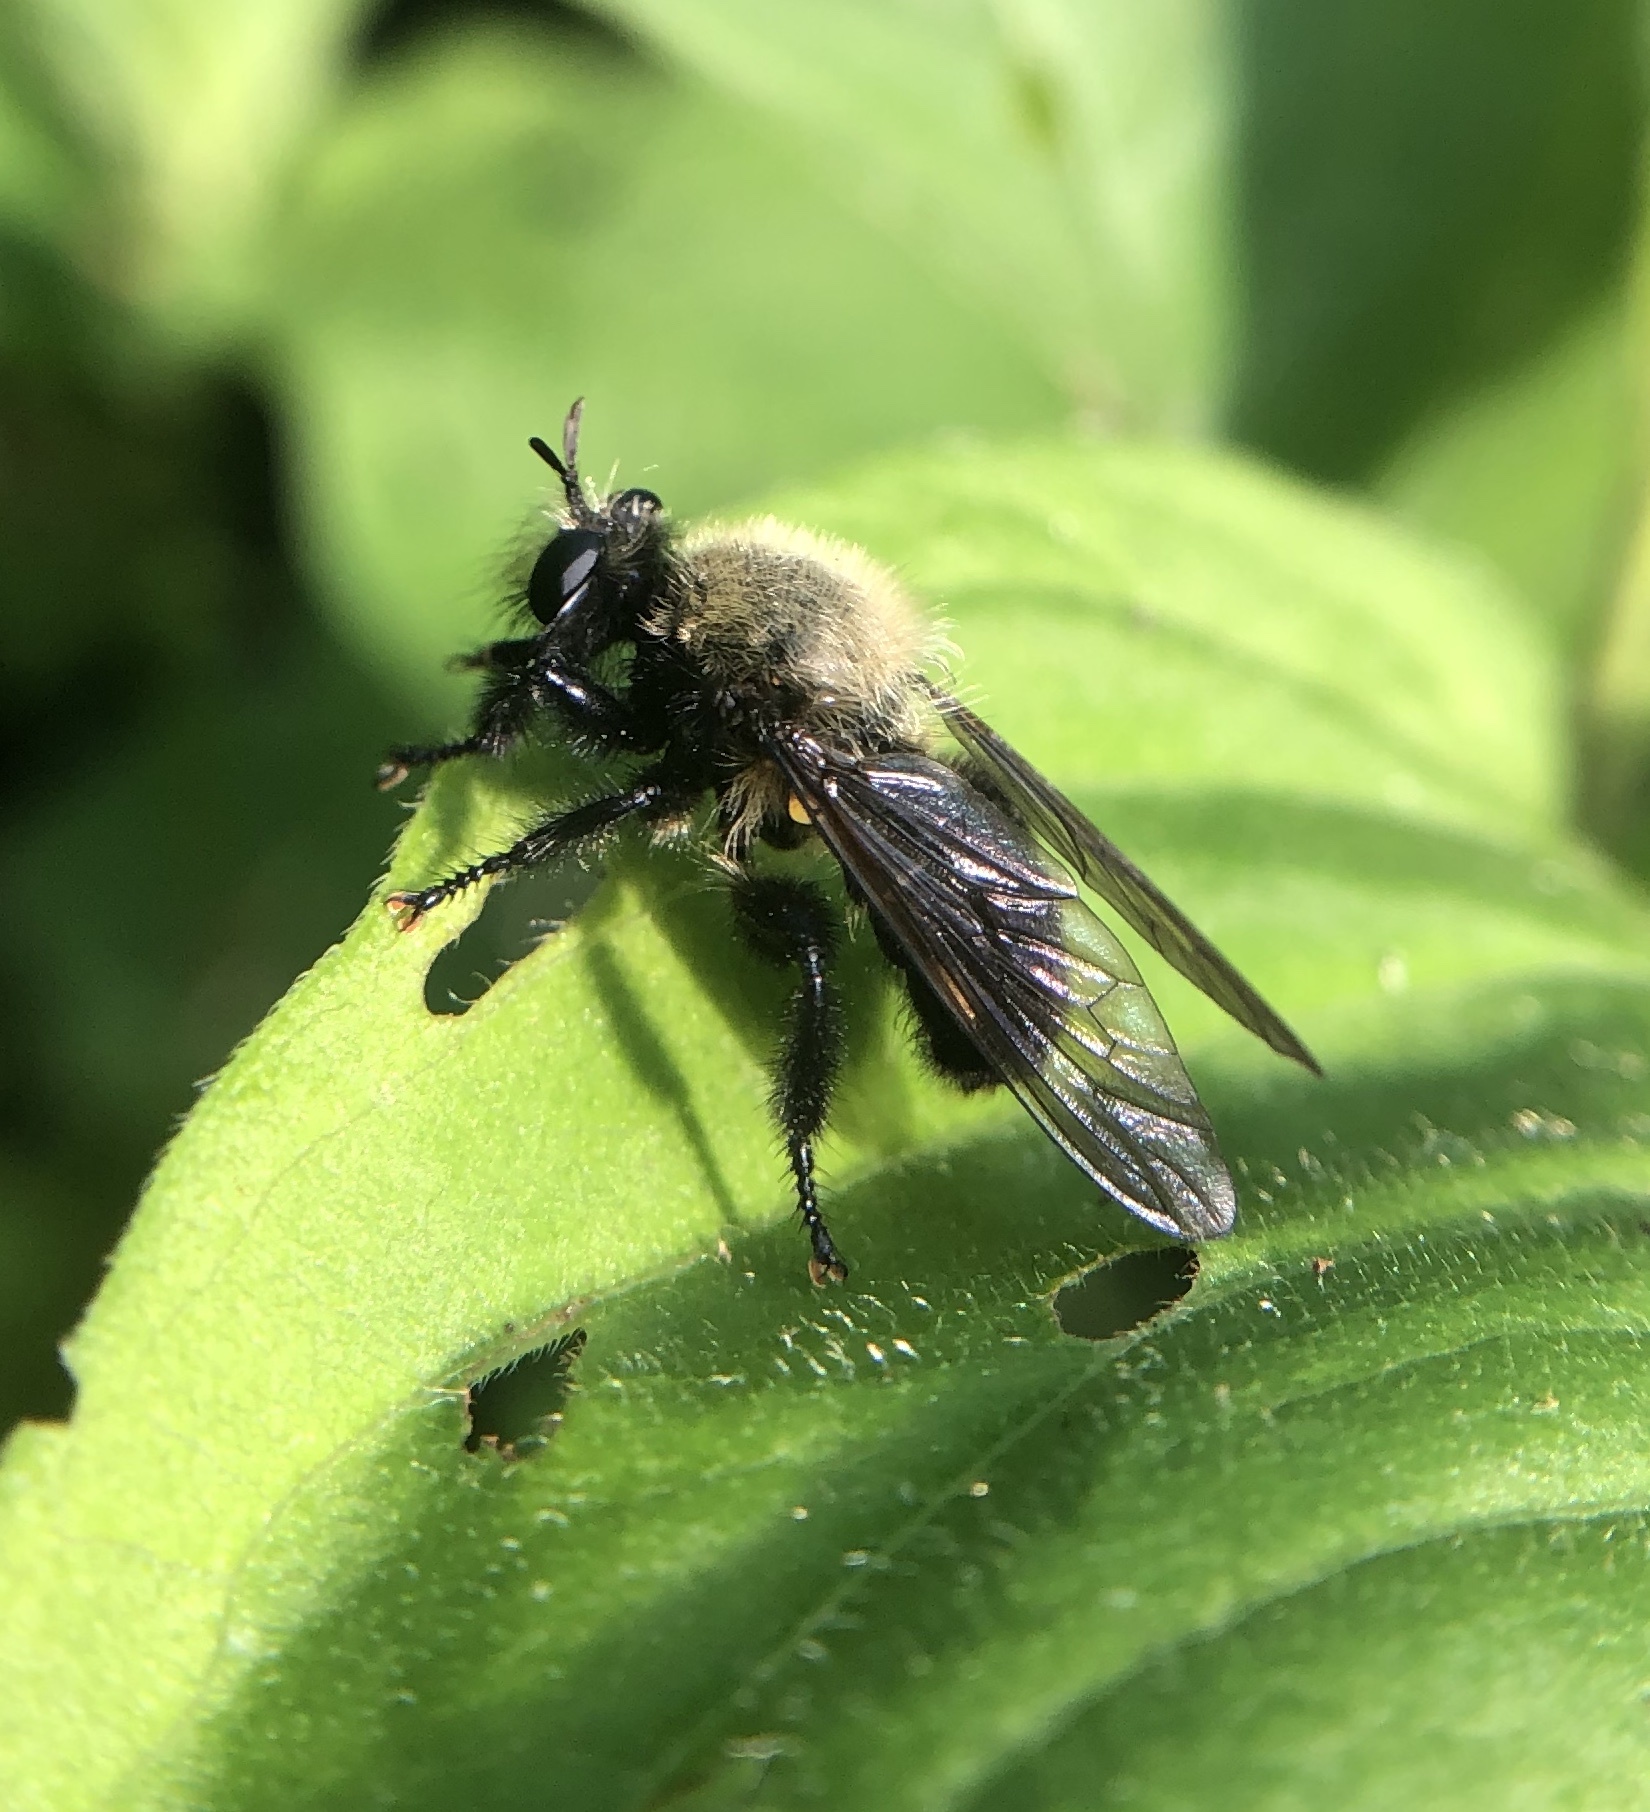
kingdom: Animalia
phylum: Arthropoda
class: Insecta
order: Diptera
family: Asilidae
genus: Laphria
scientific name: Laphria flavicollis
